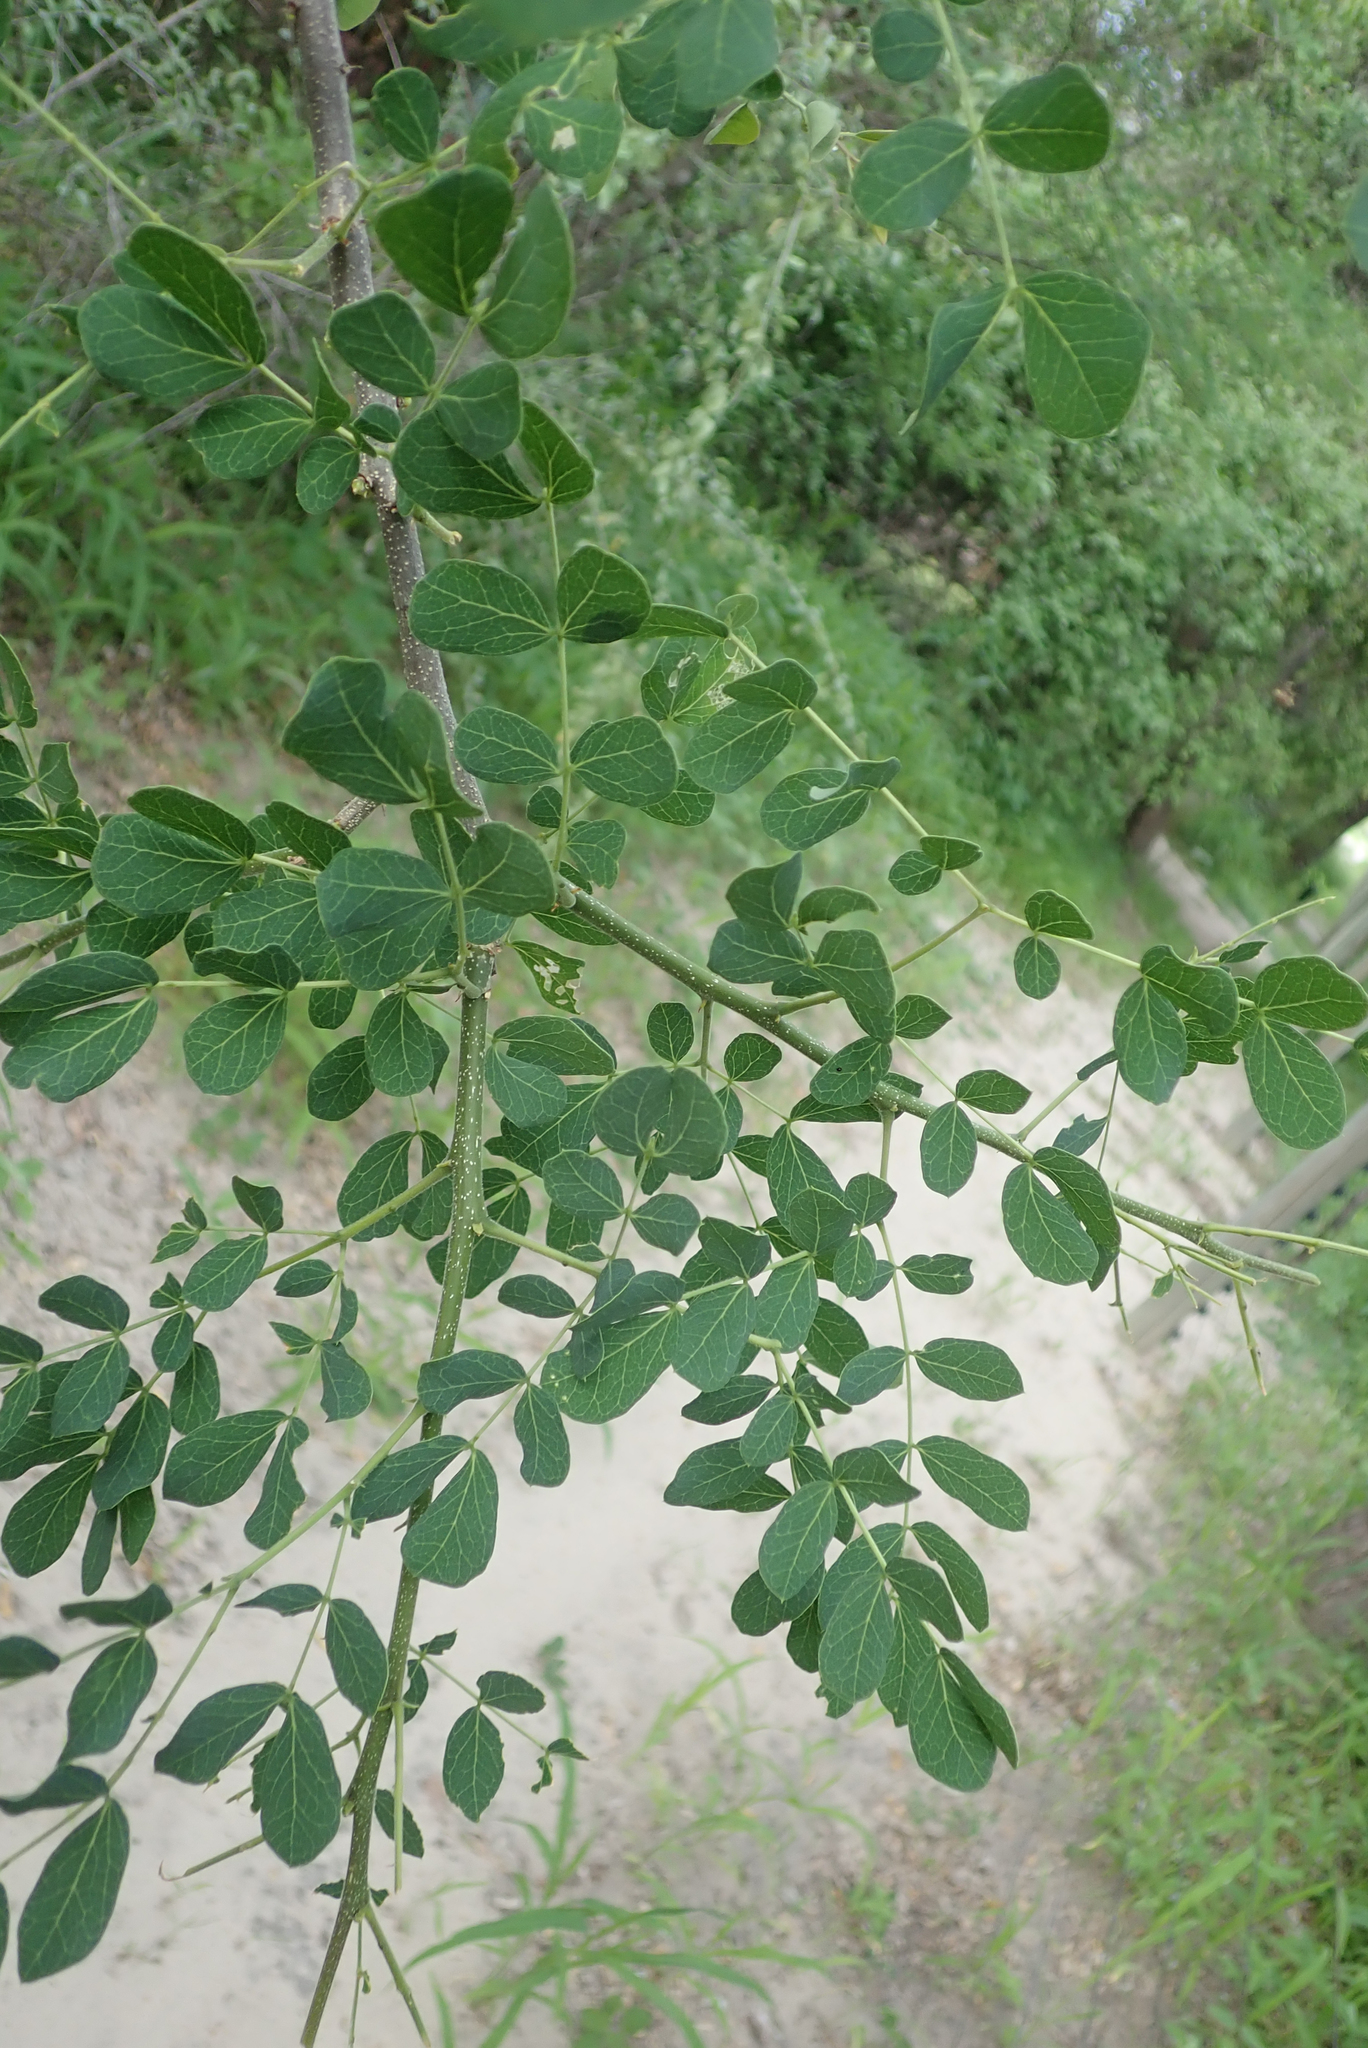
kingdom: Plantae
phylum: Tracheophyta
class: Magnoliopsida
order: Fabales
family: Fabaceae
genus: Albizia
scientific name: Albizia versicolor
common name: Poisonpod
